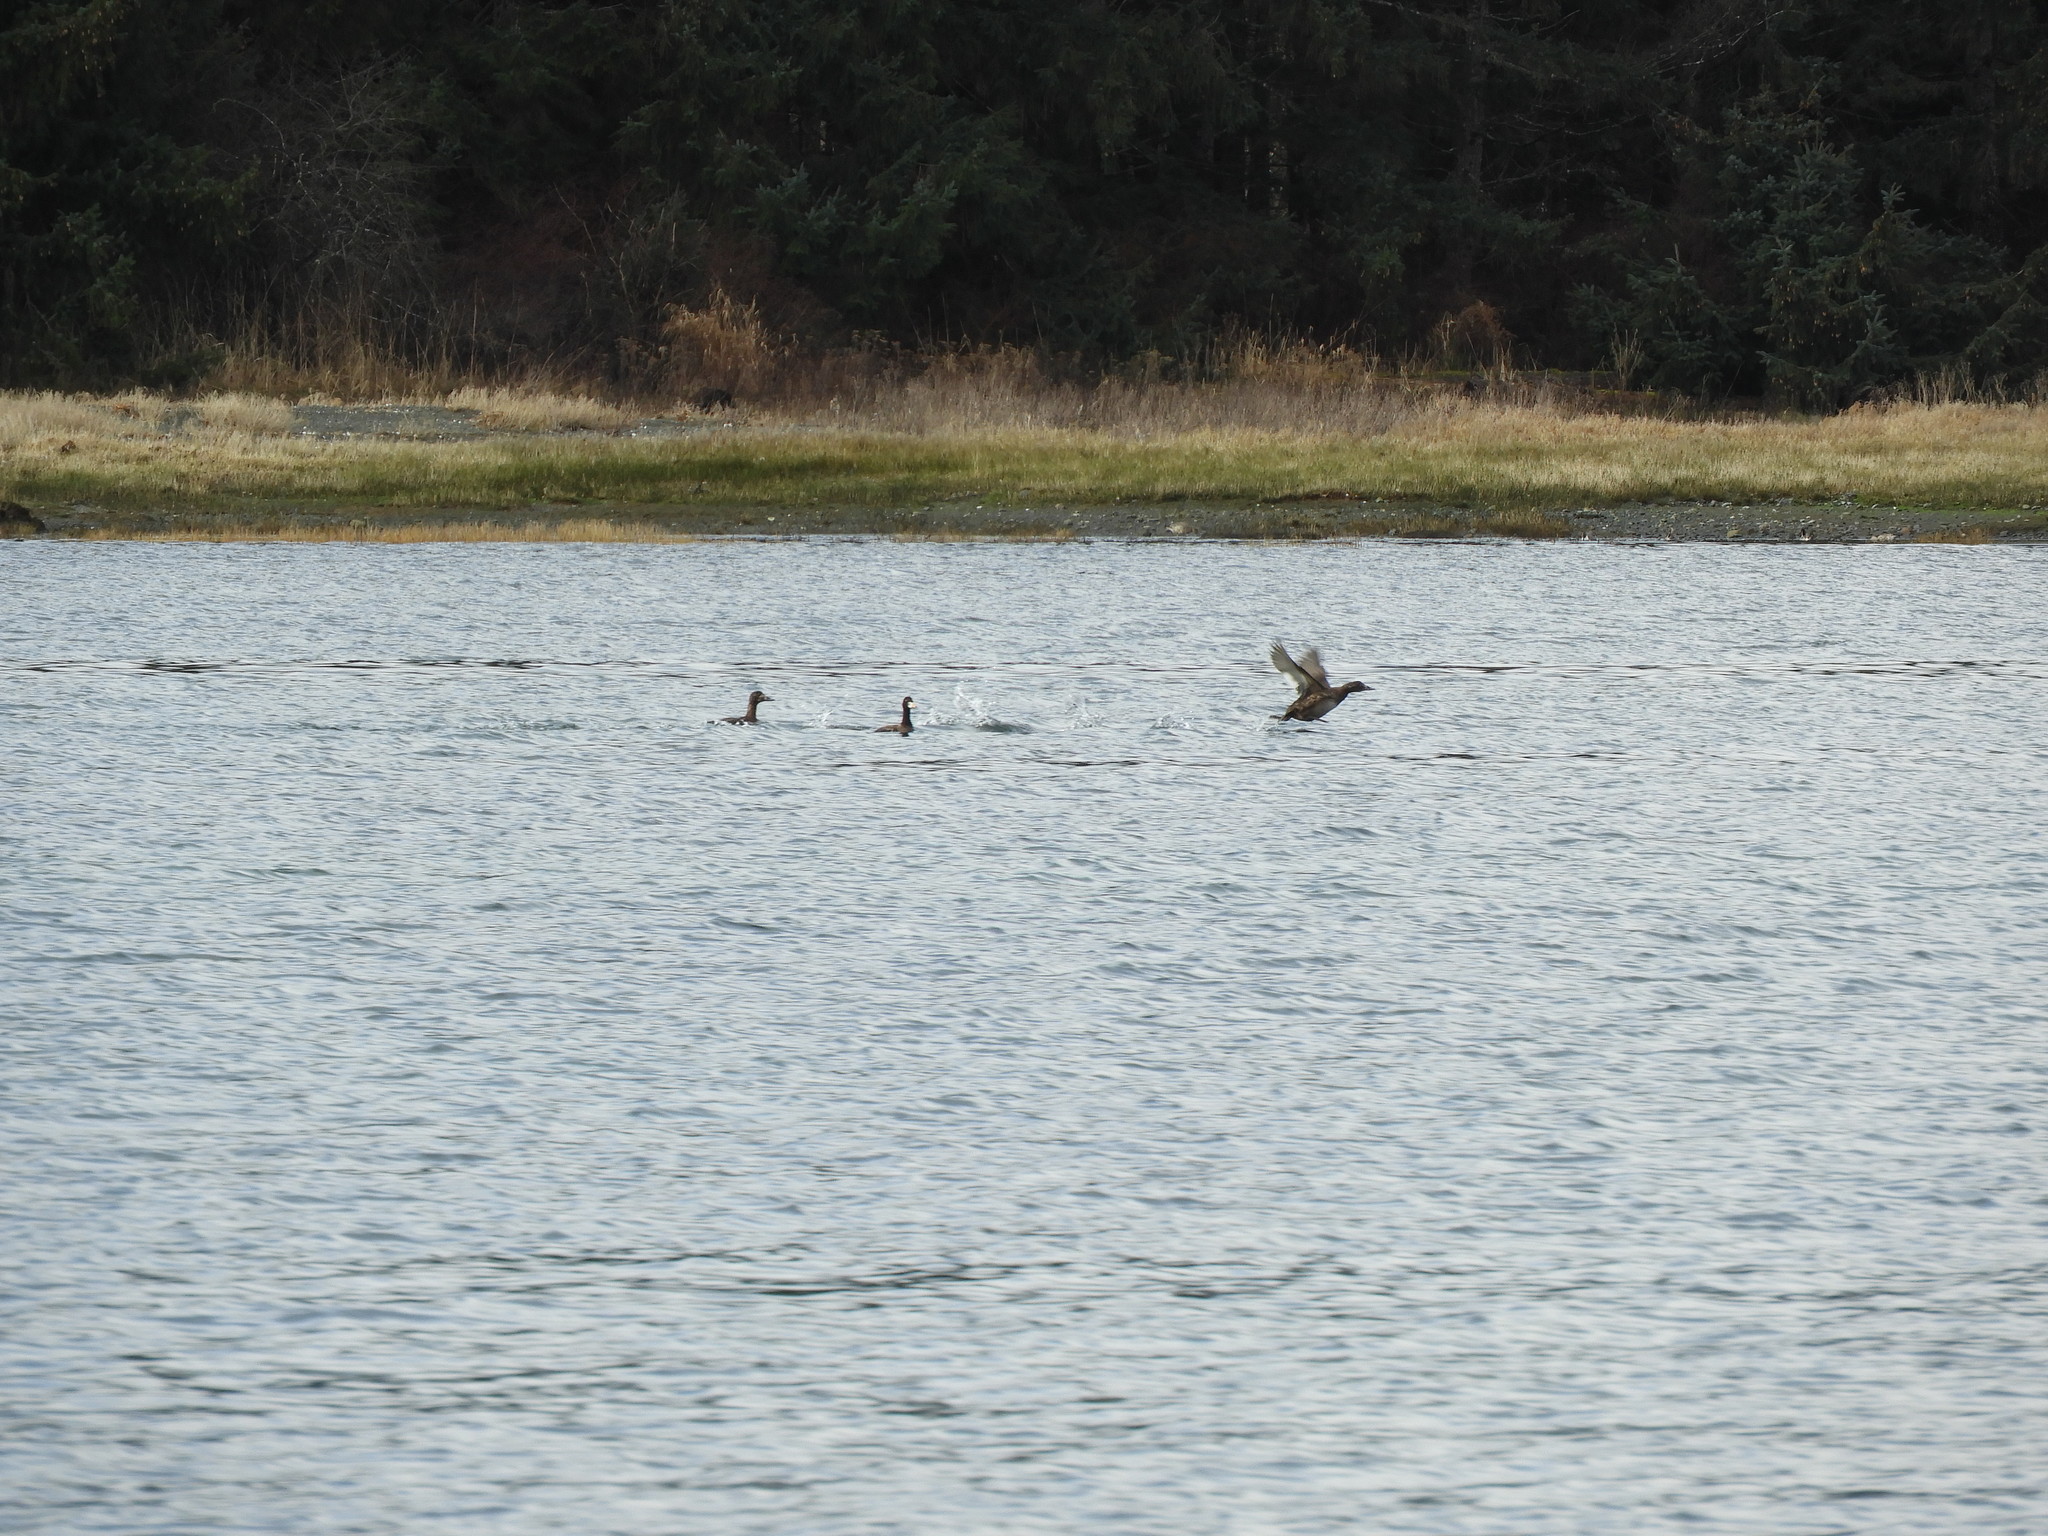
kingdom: Animalia
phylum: Chordata
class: Aves
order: Anseriformes
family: Anatidae
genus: Melanitta
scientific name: Melanitta perspicillata
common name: Surf scoter
